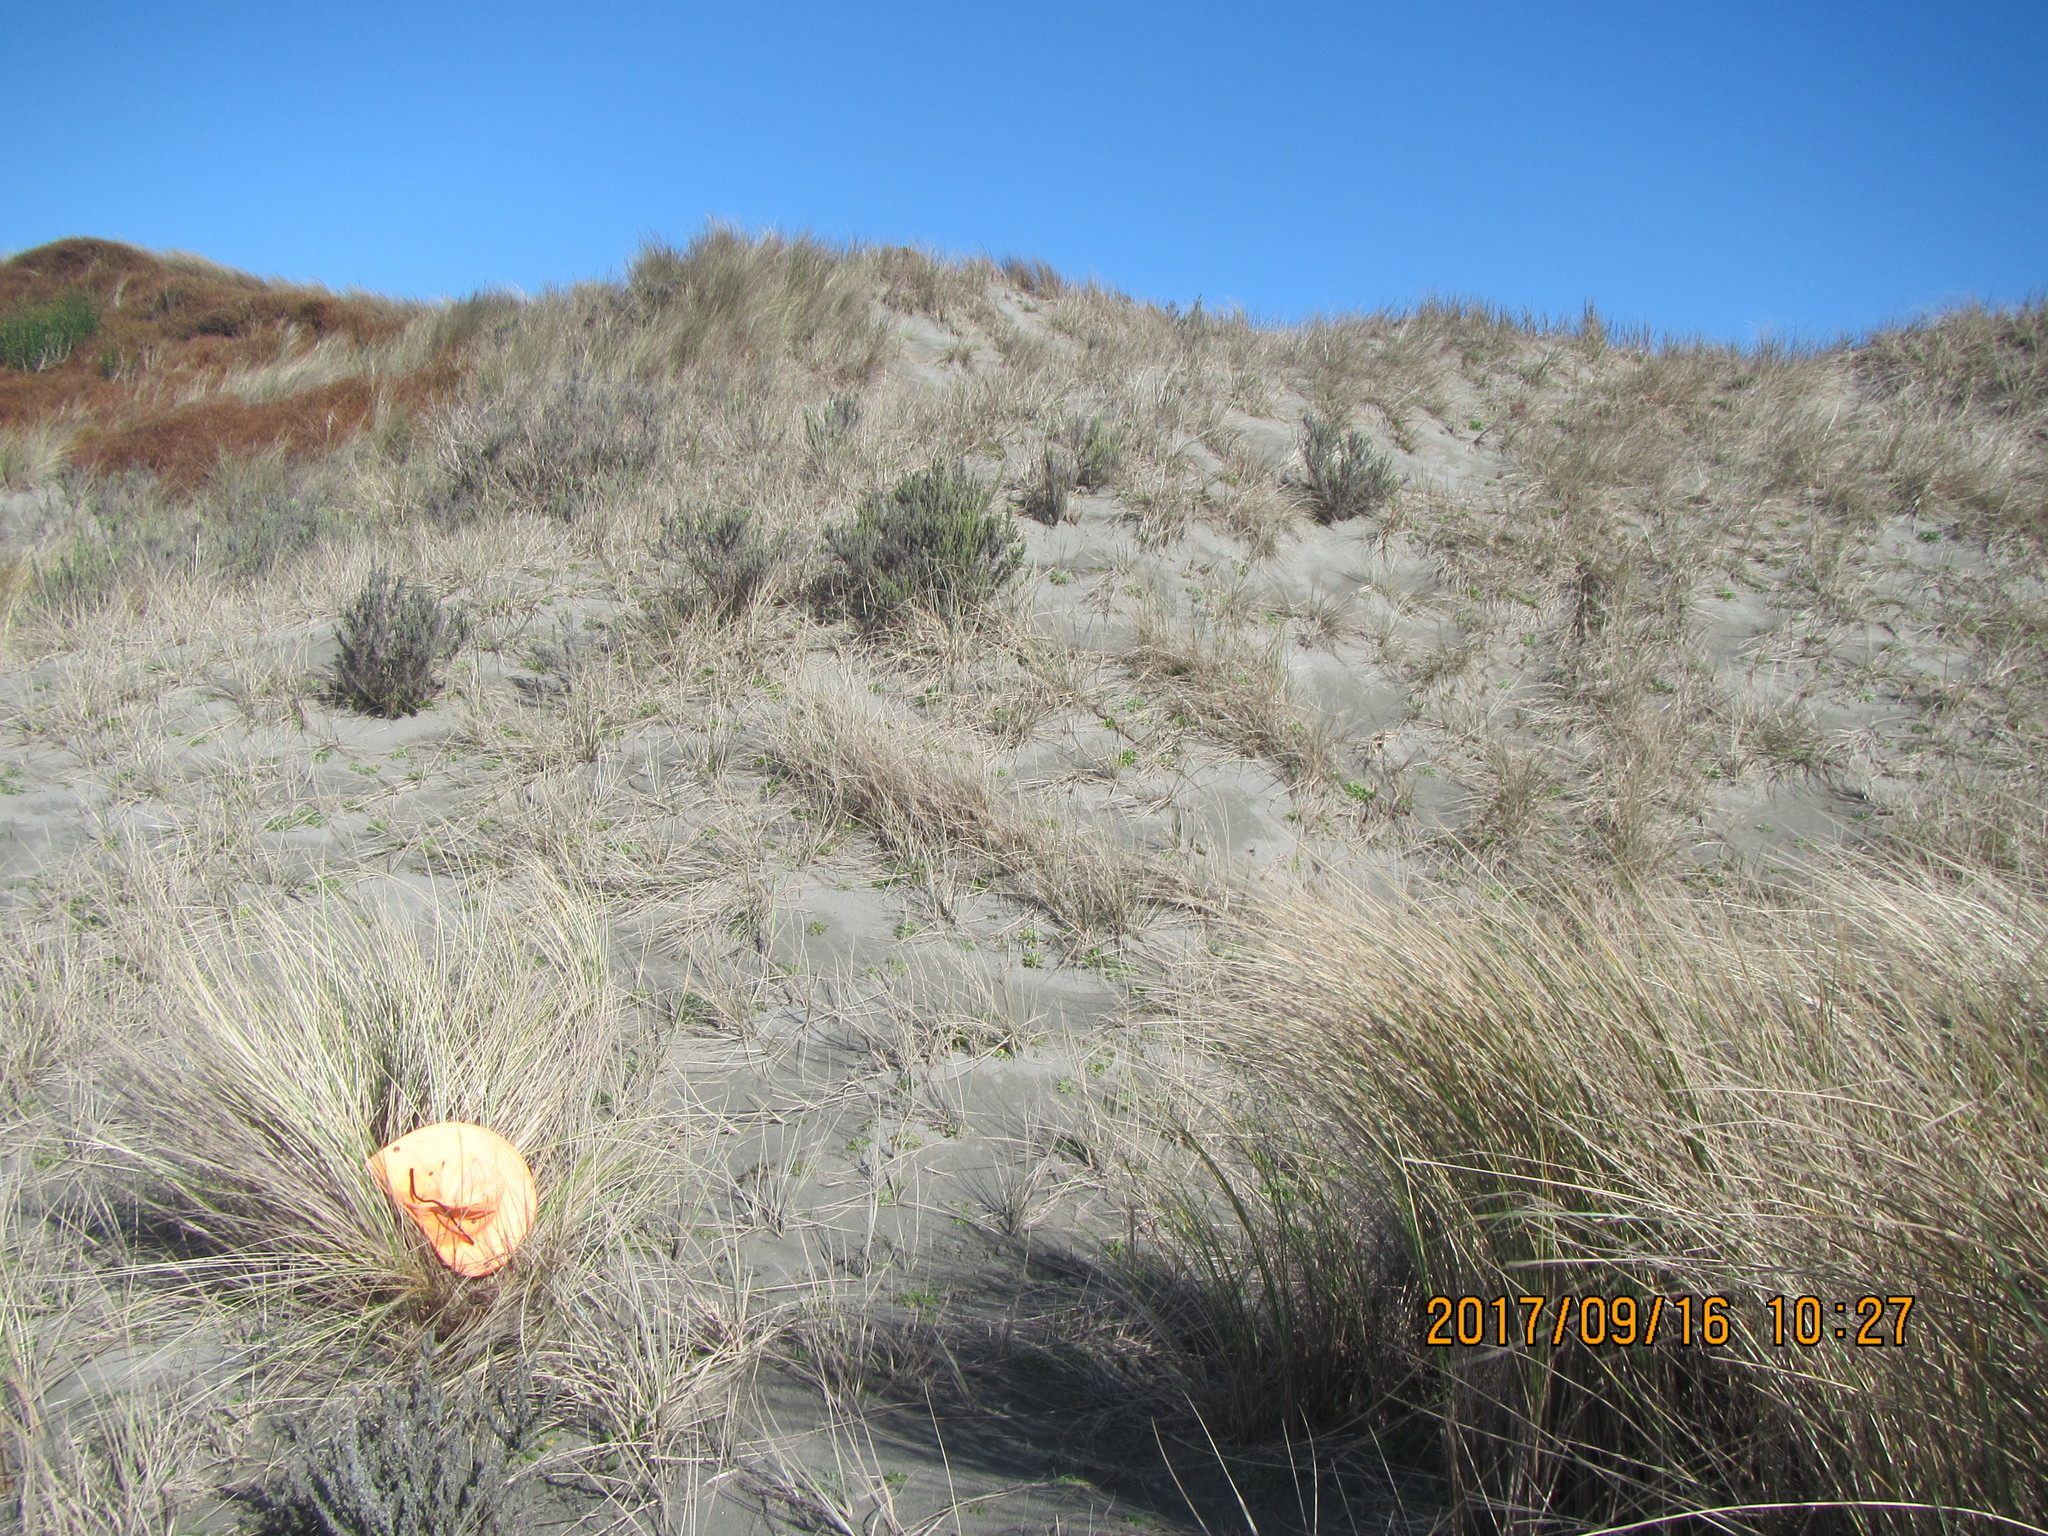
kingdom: Animalia
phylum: Arthropoda
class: Arachnida
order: Araneae
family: Thomisidae
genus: Sidymella
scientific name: Sidymella trapezia
